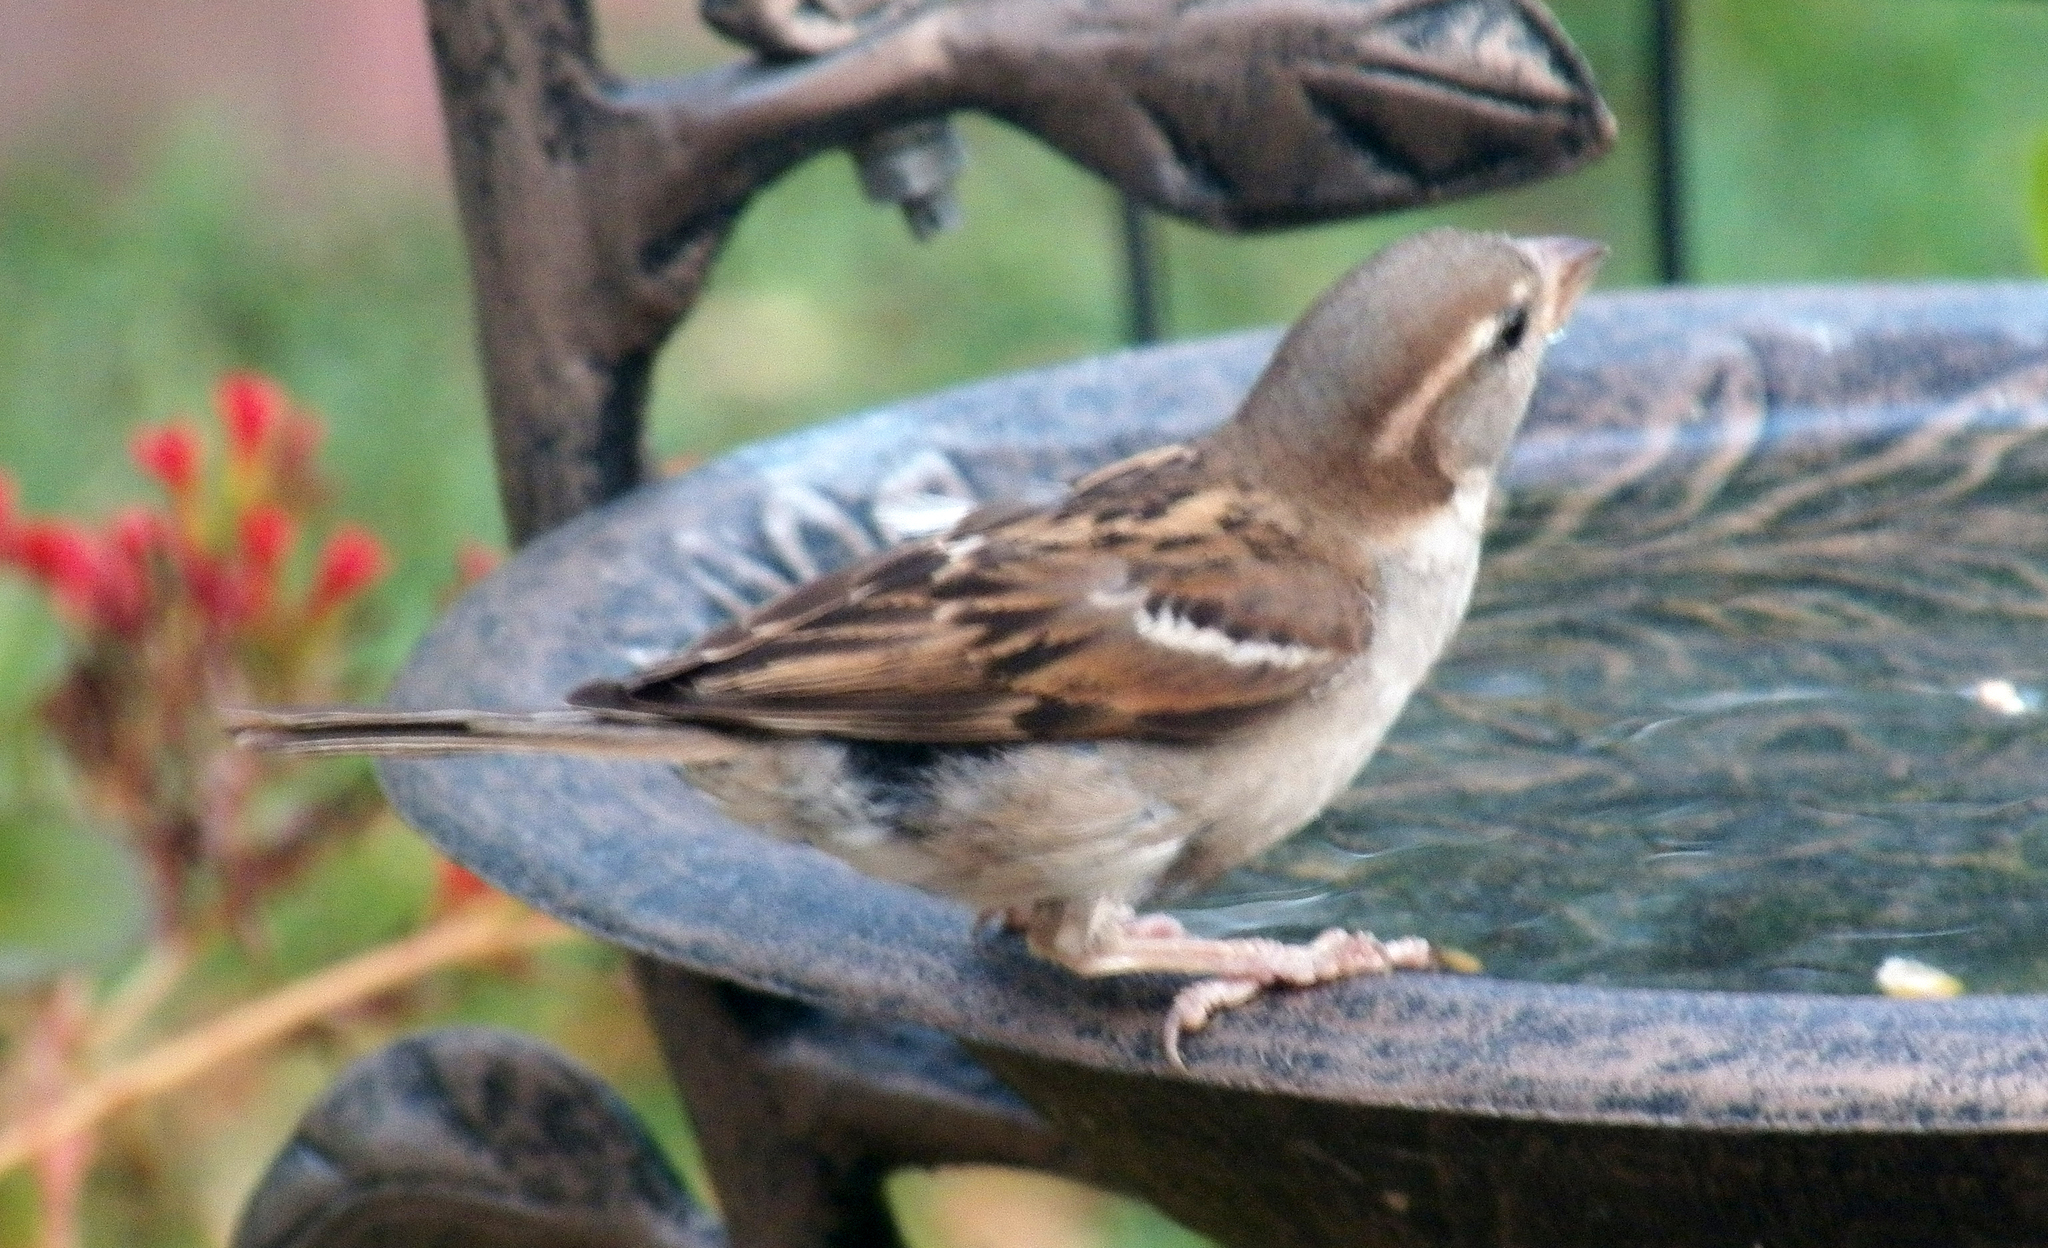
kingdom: Animalia
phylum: Chordata
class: Aves
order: Passeriformes
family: Passeridae
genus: Passer
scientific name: Passer domesticus
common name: House sparrow
